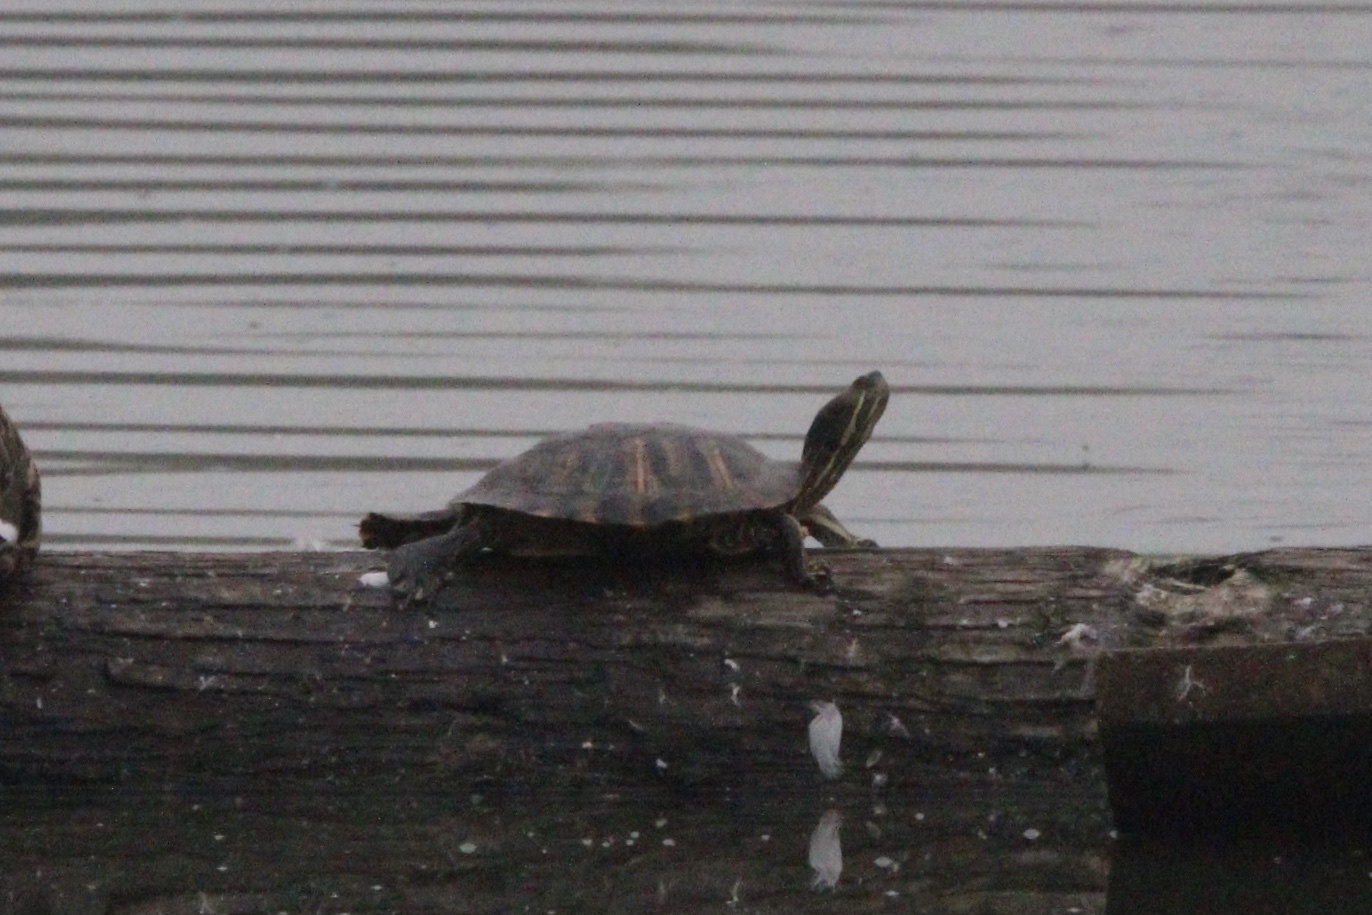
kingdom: Animalia
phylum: Chordata
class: Testudines
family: Emydidae
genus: Trachemys
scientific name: Trachemys scripta
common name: Slider
